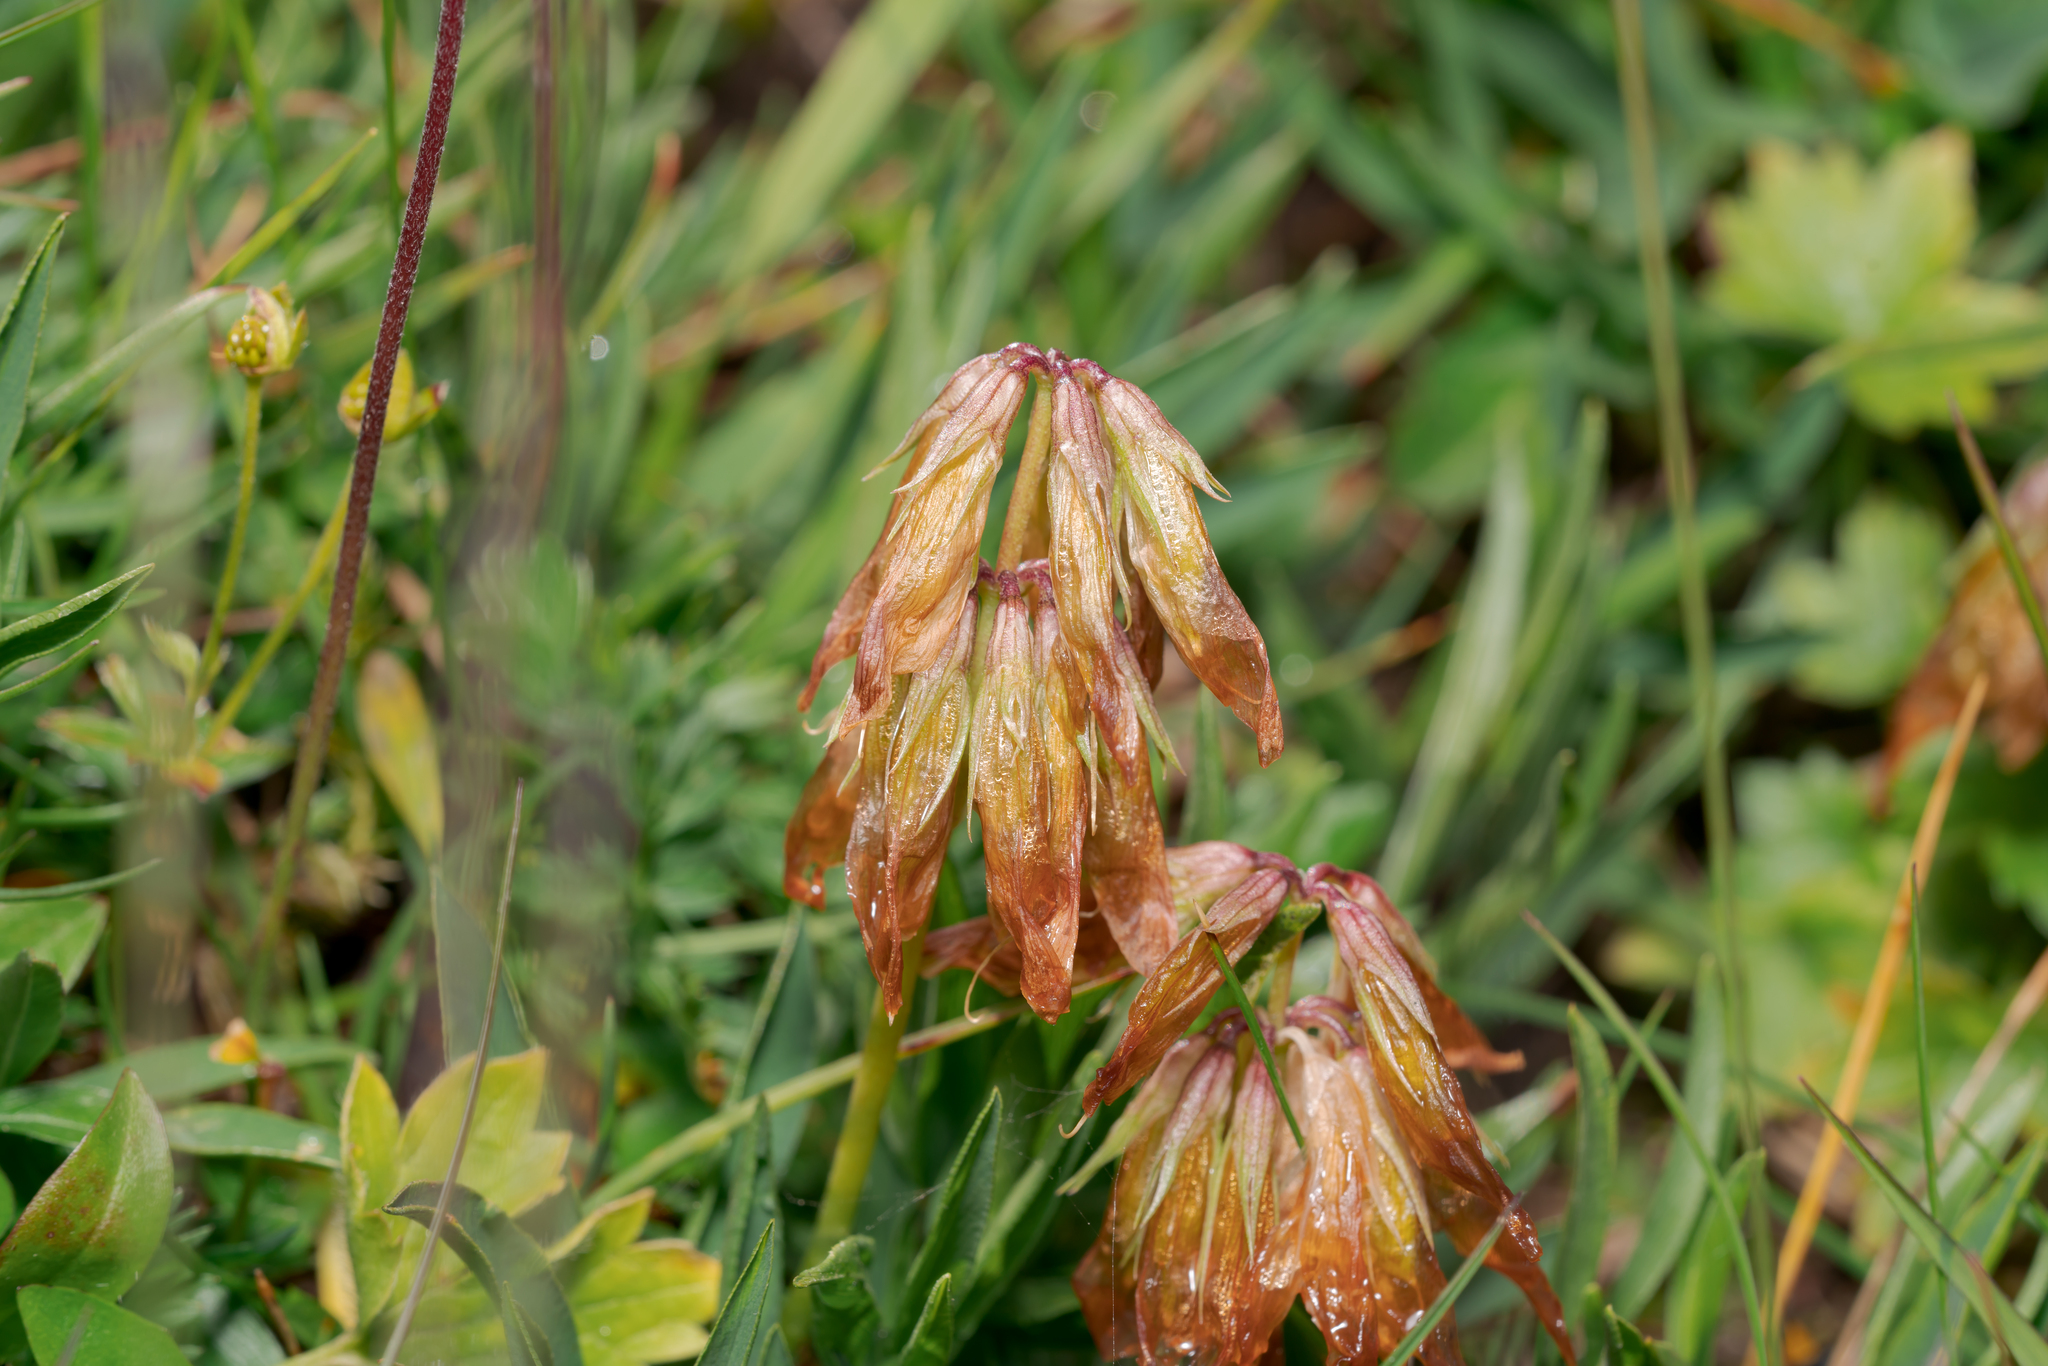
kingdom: Plantae
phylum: Tracheophyta
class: Magnoliopsida
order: Fabales
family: Fabaceae
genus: Trifolium
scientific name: Trifolium alpinum
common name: Alpine clover
